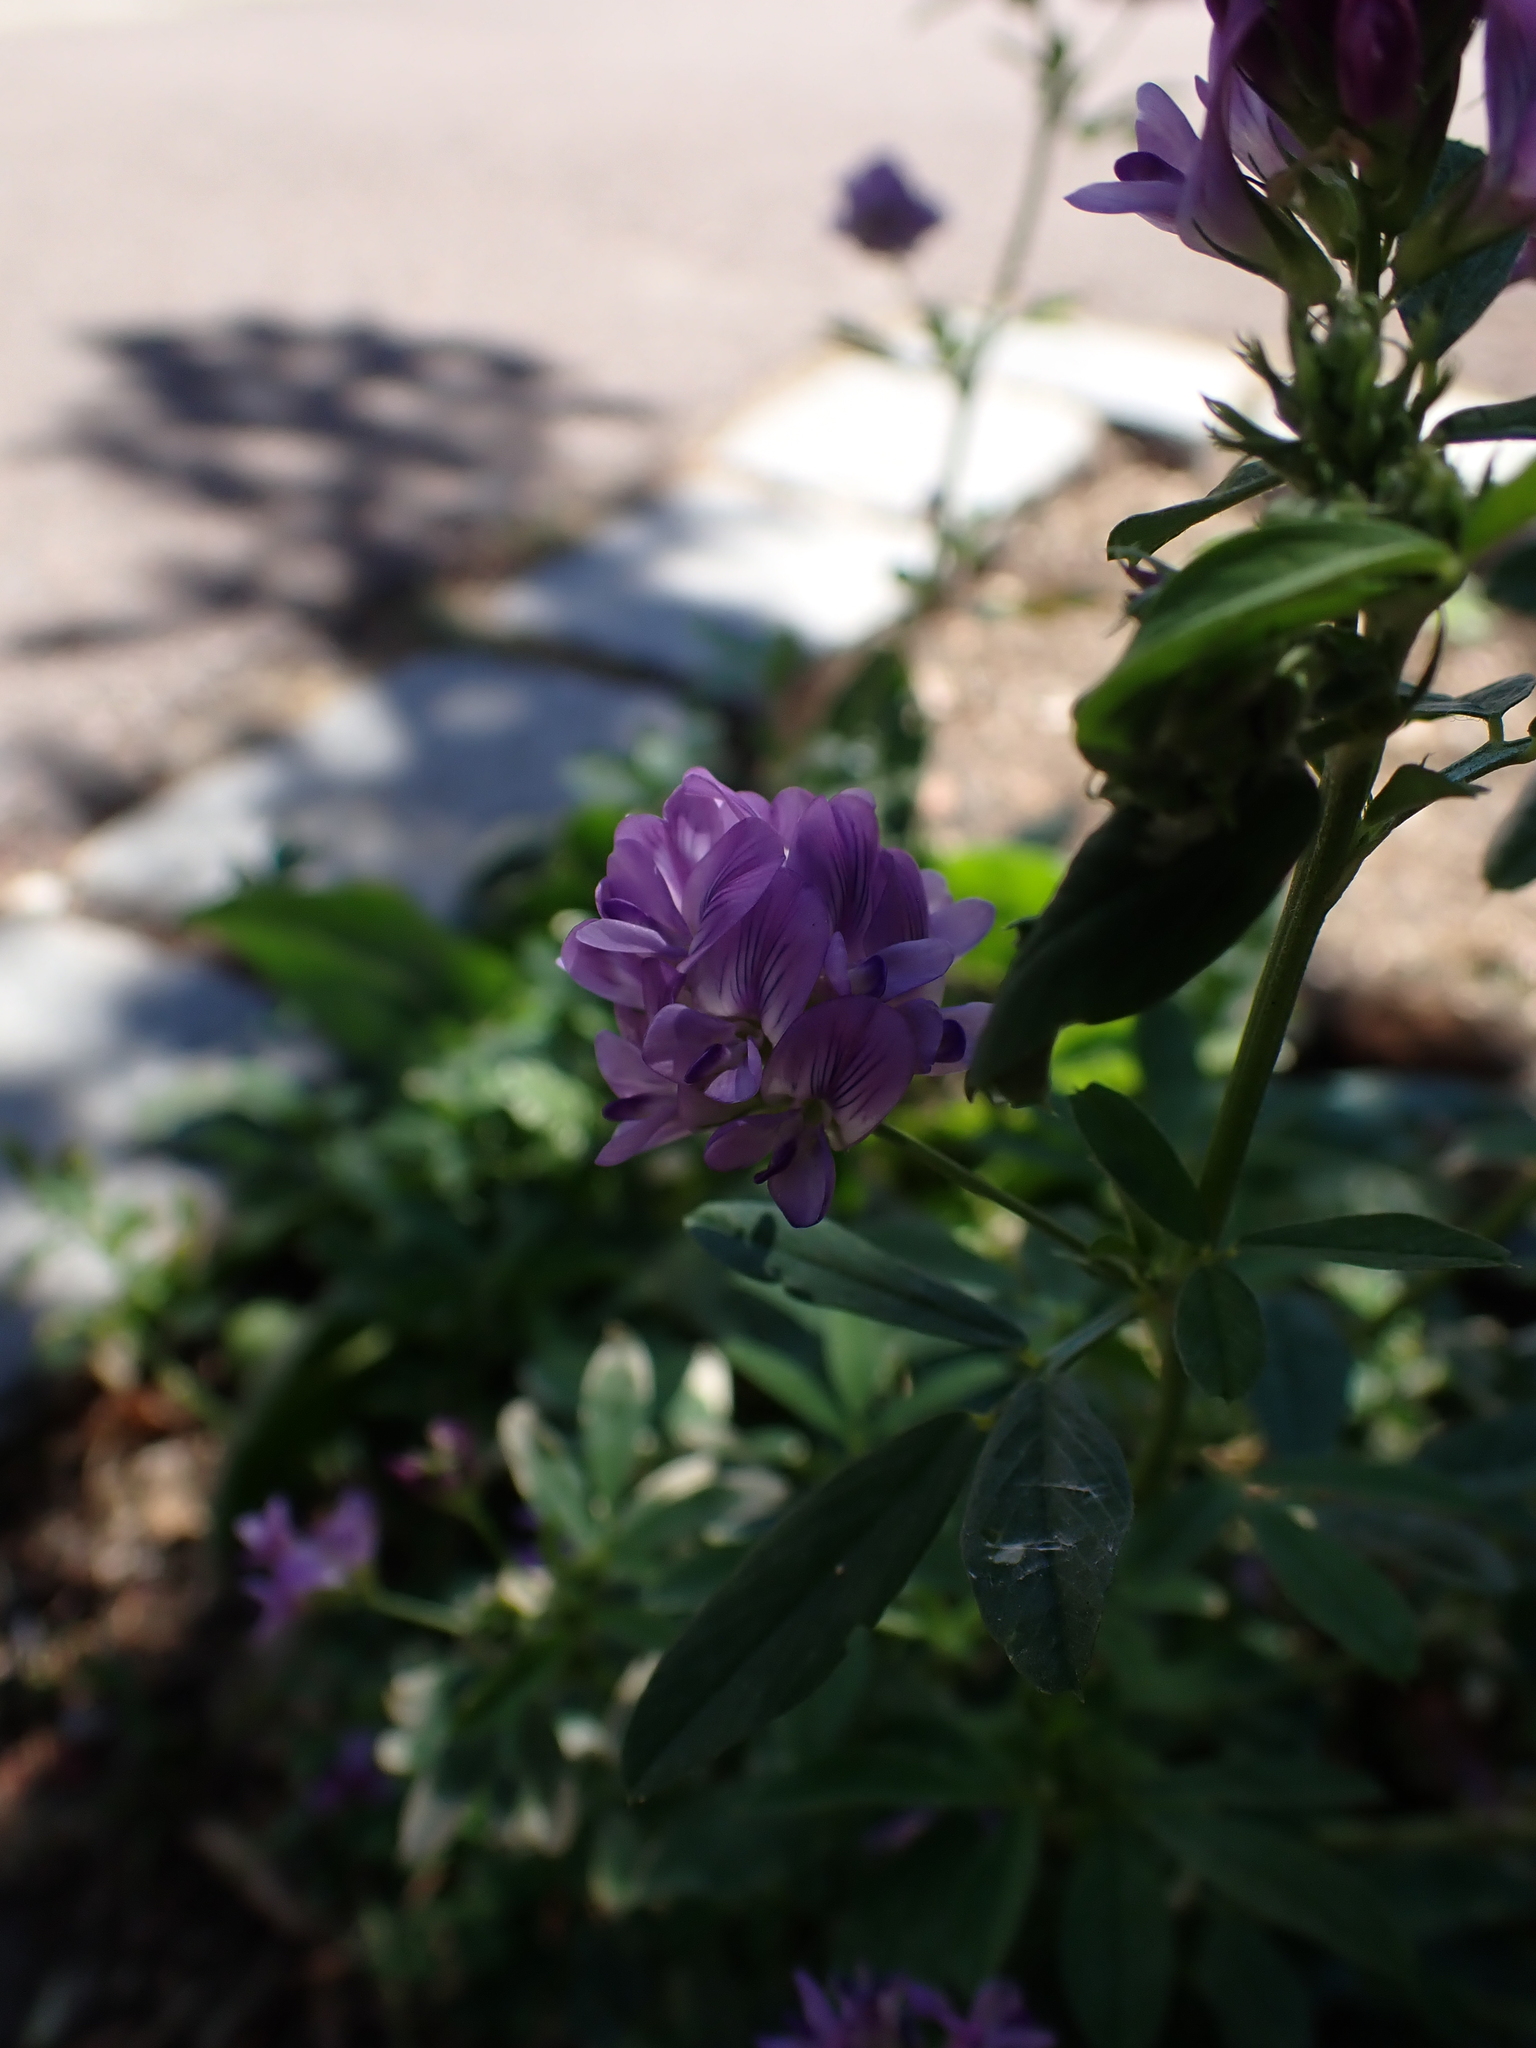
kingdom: Plantae
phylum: Tracheophyta
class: Magnoliopsida
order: Fabales
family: Fabaceae
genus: Medicago
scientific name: Medicago sativa
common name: Alfalfa
